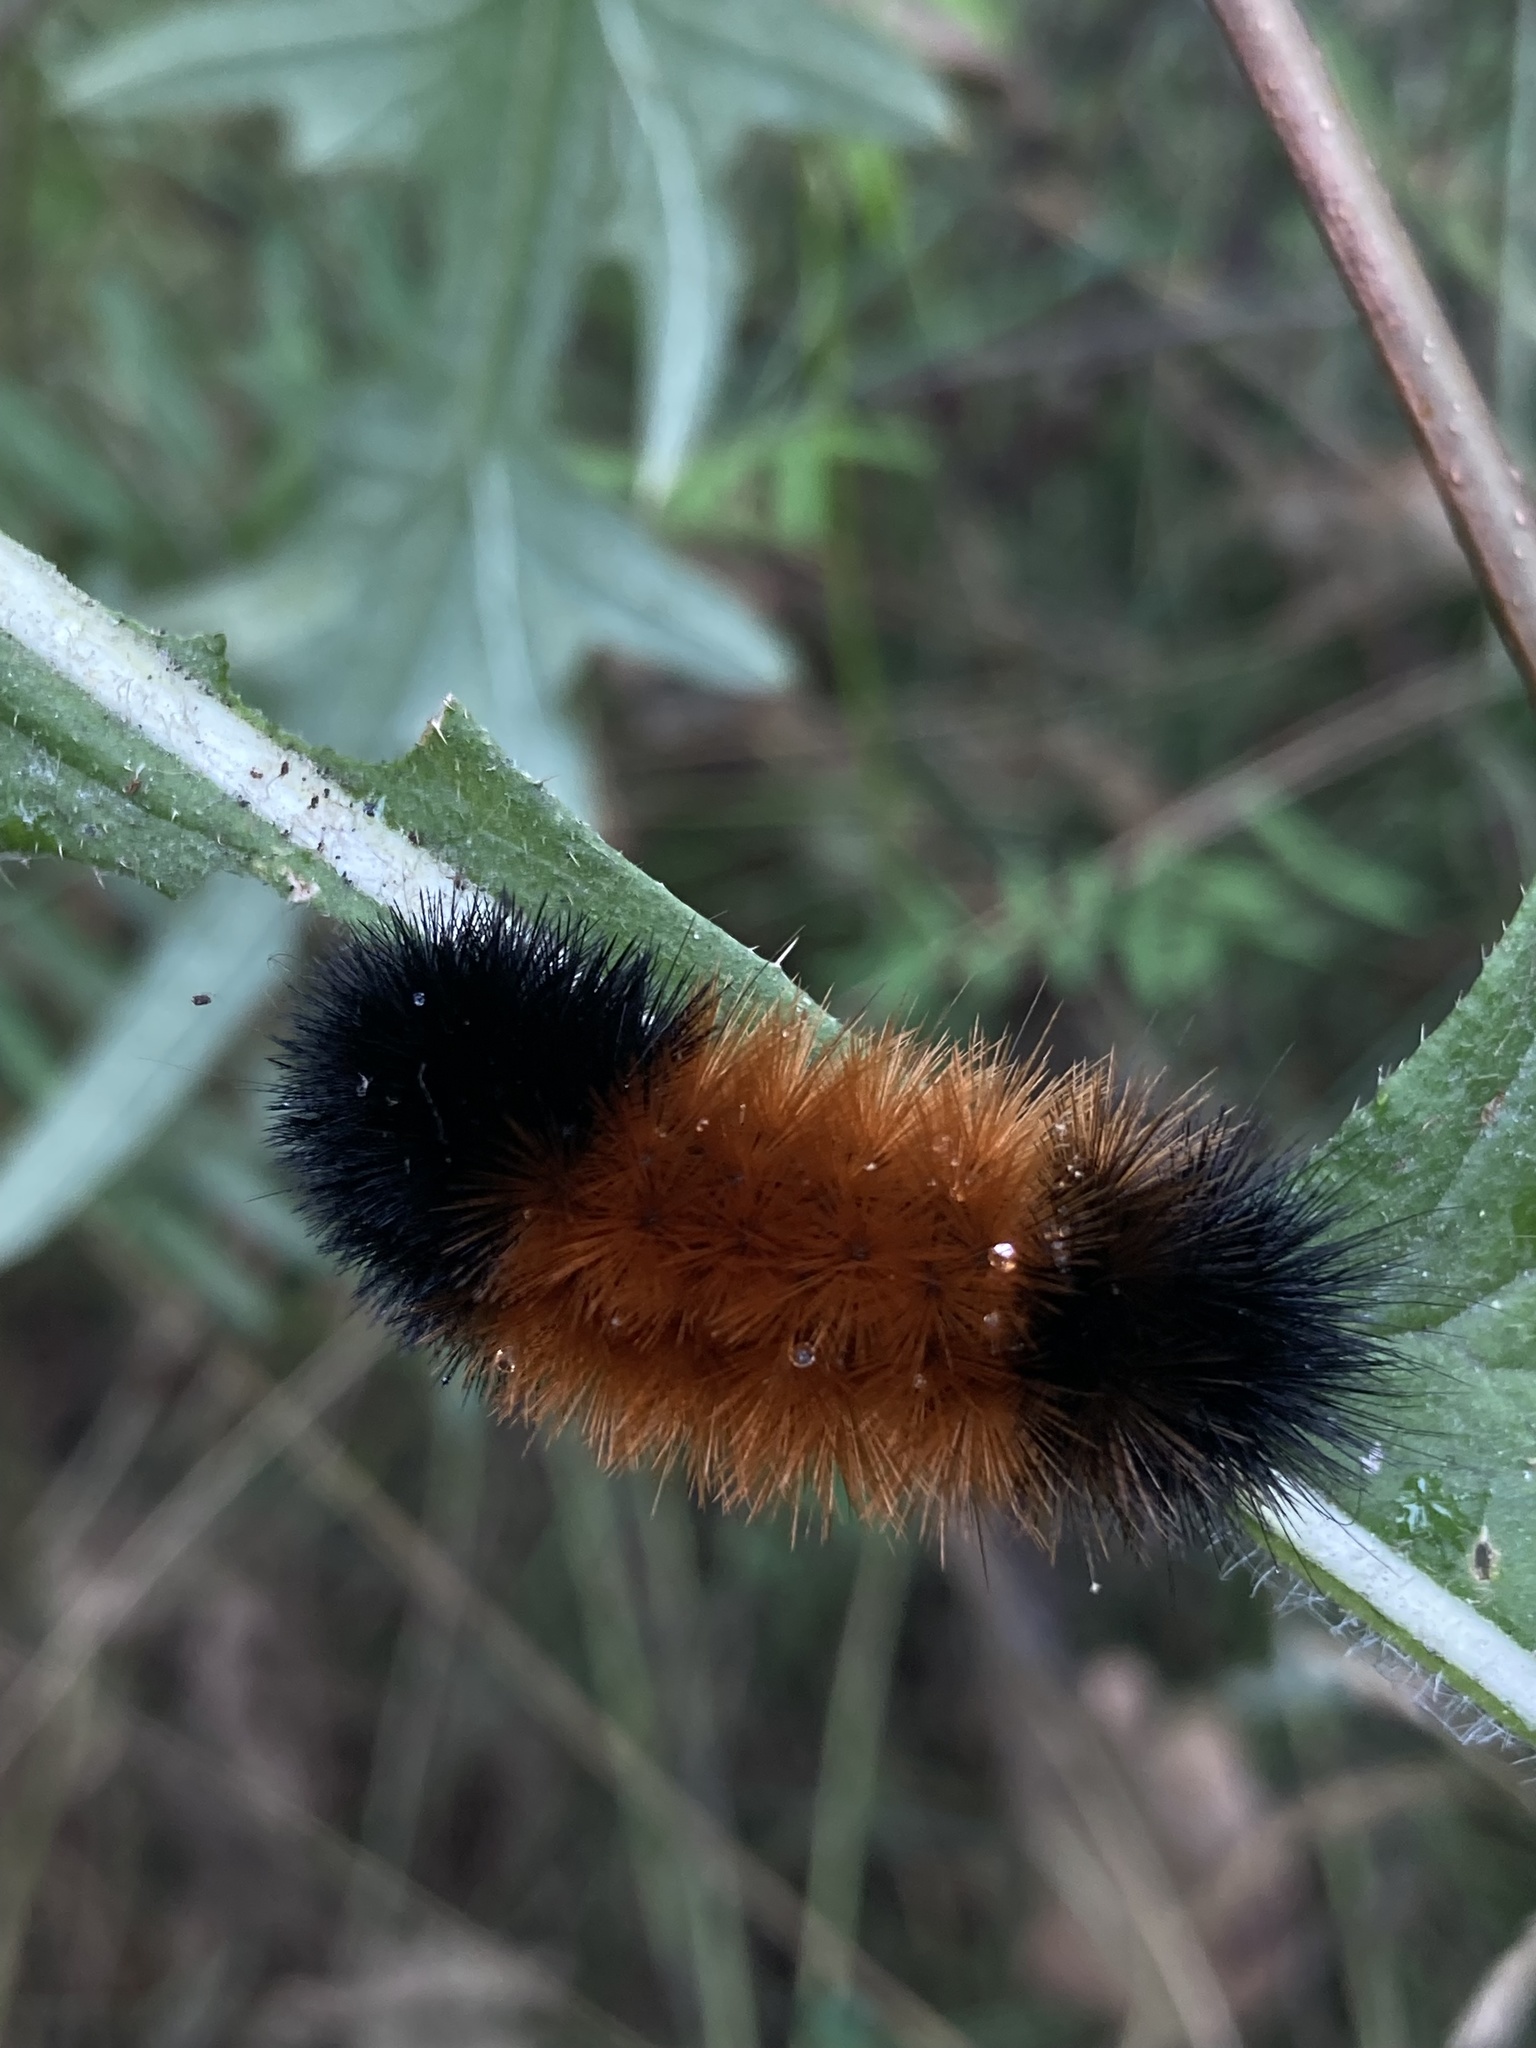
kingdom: Animalia
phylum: Arthropoda
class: Insecta
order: Lepidoptera
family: Erebidae
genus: Pyrrharctia
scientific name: Pyrrharctia isabella
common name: Isabella tiger moth
